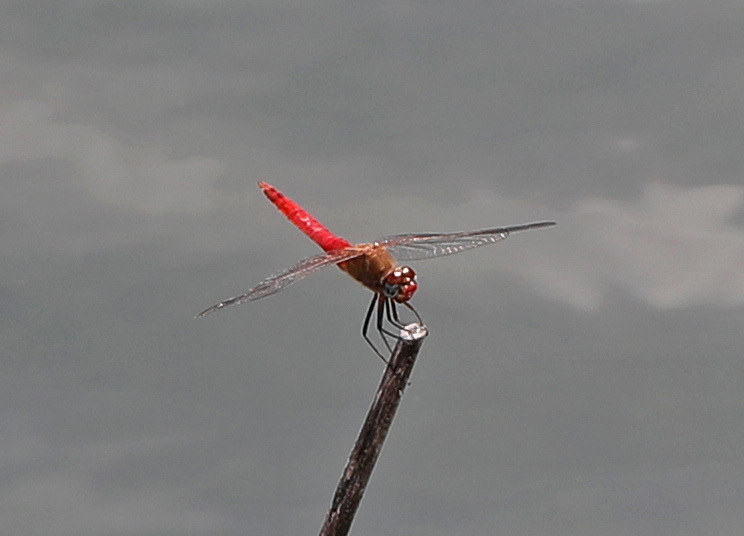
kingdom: Animalia
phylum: Arthropoda
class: Insecta
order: Odonata
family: Libellulidae
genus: Brachymesia
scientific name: Brachymesia furcata
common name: Red-taled pennant
